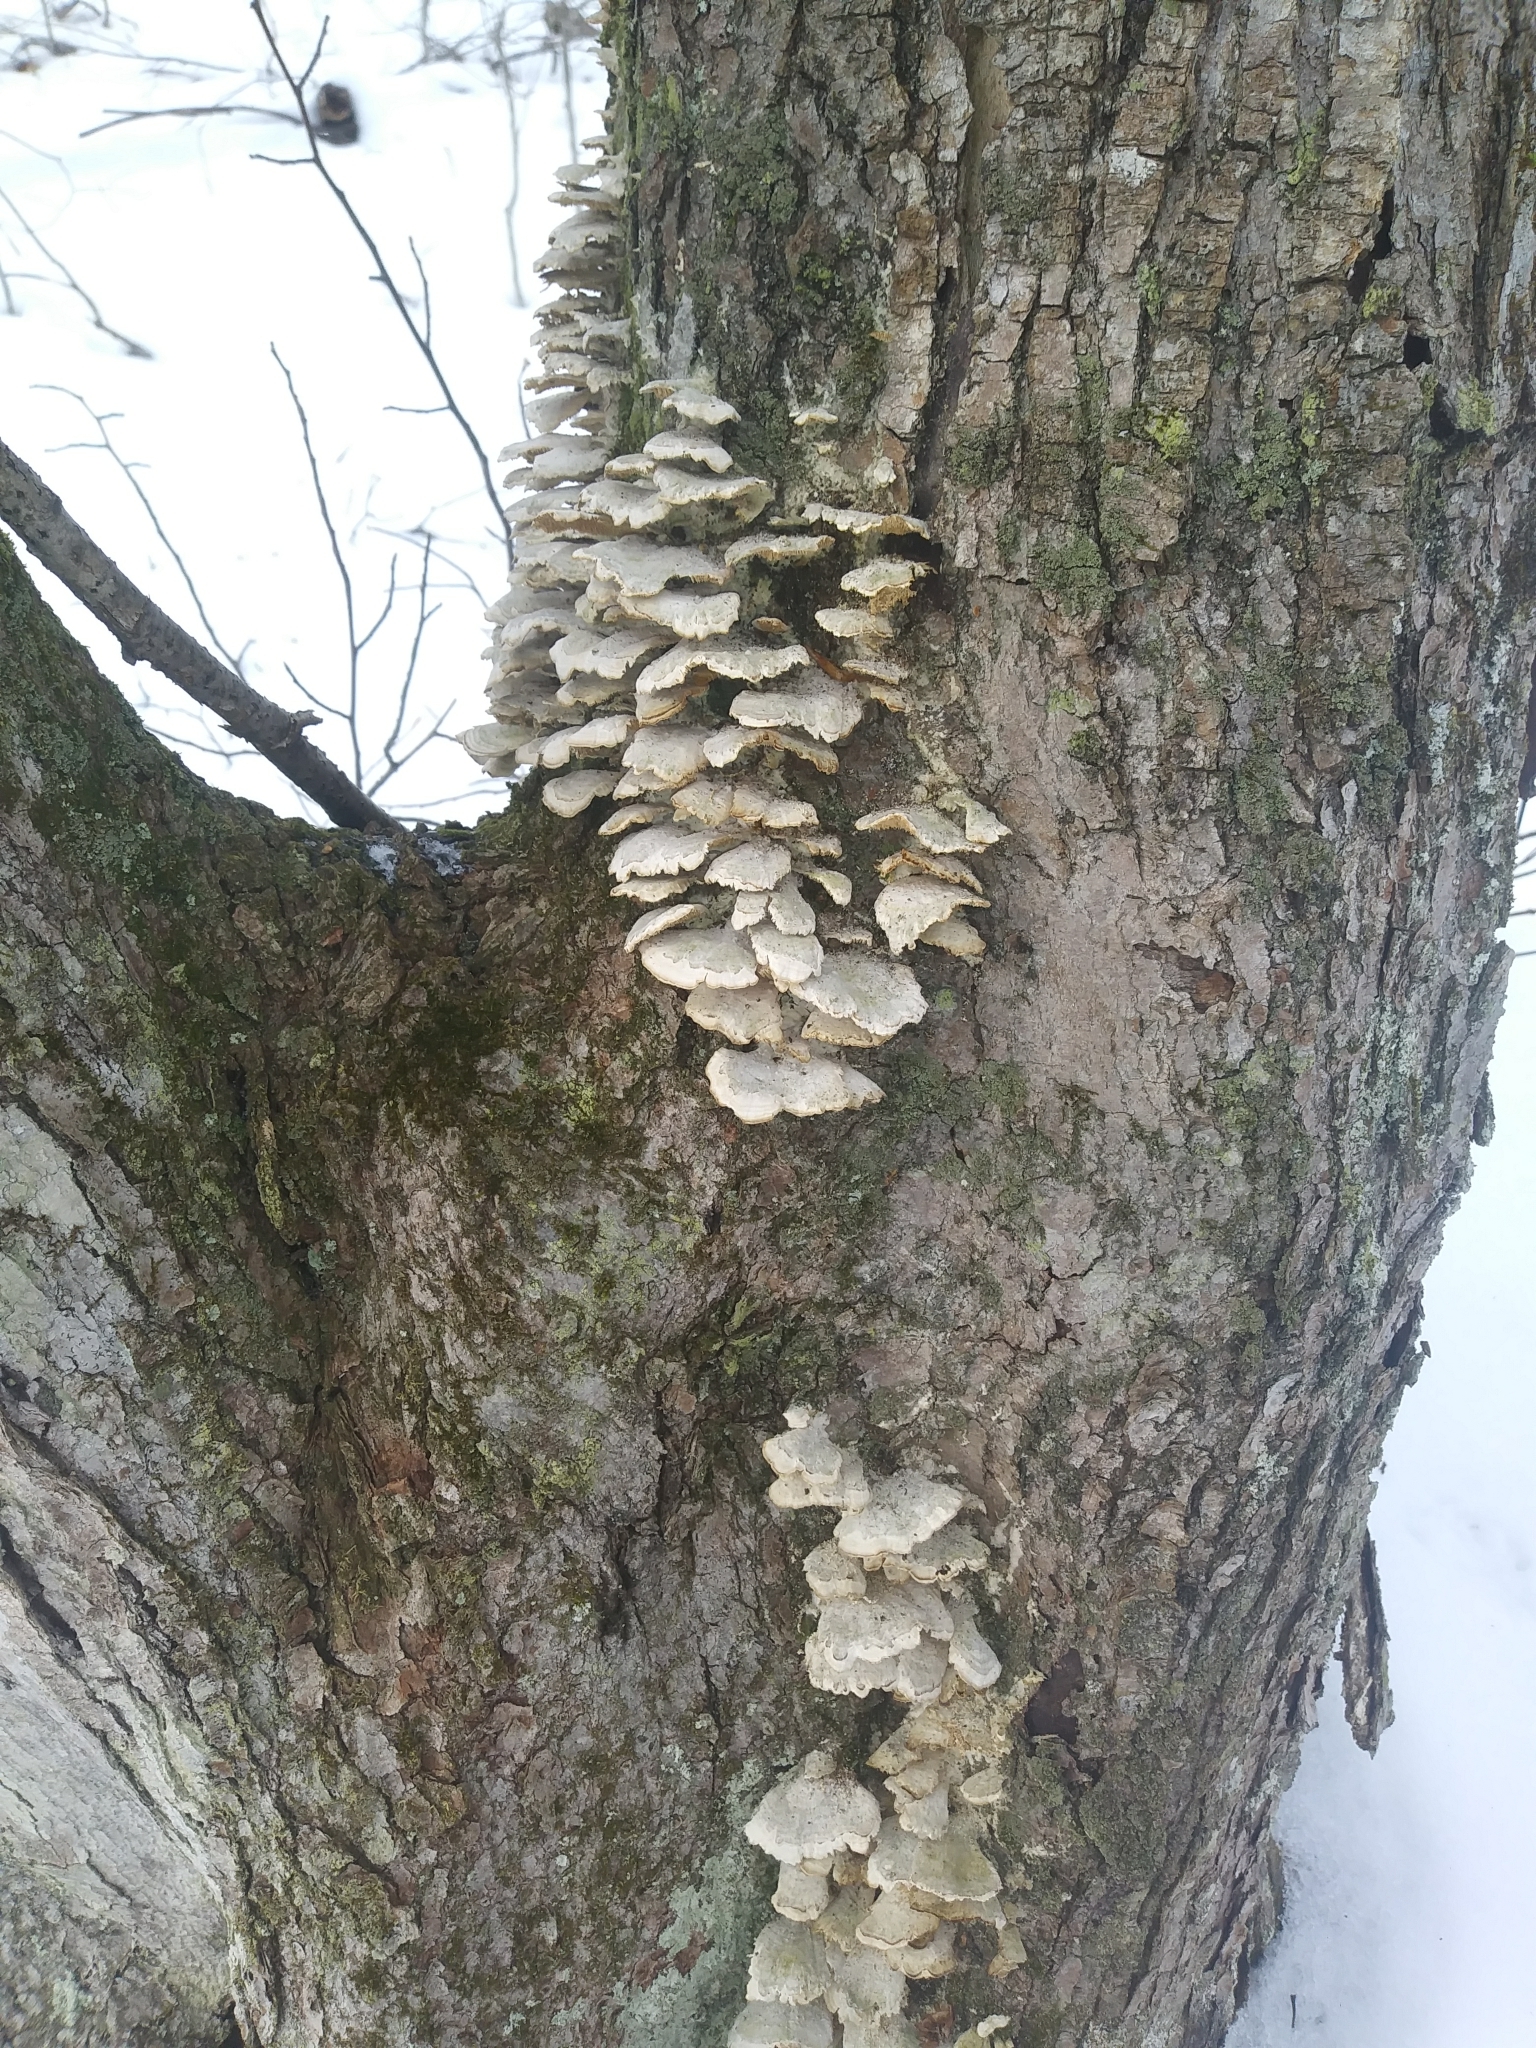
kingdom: Fungi
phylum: Basidiomycota
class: Agaricomycetes
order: Hymenochaetales
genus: Trichaptum
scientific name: Trichaptum biforme
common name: Violet-toothed polypore
